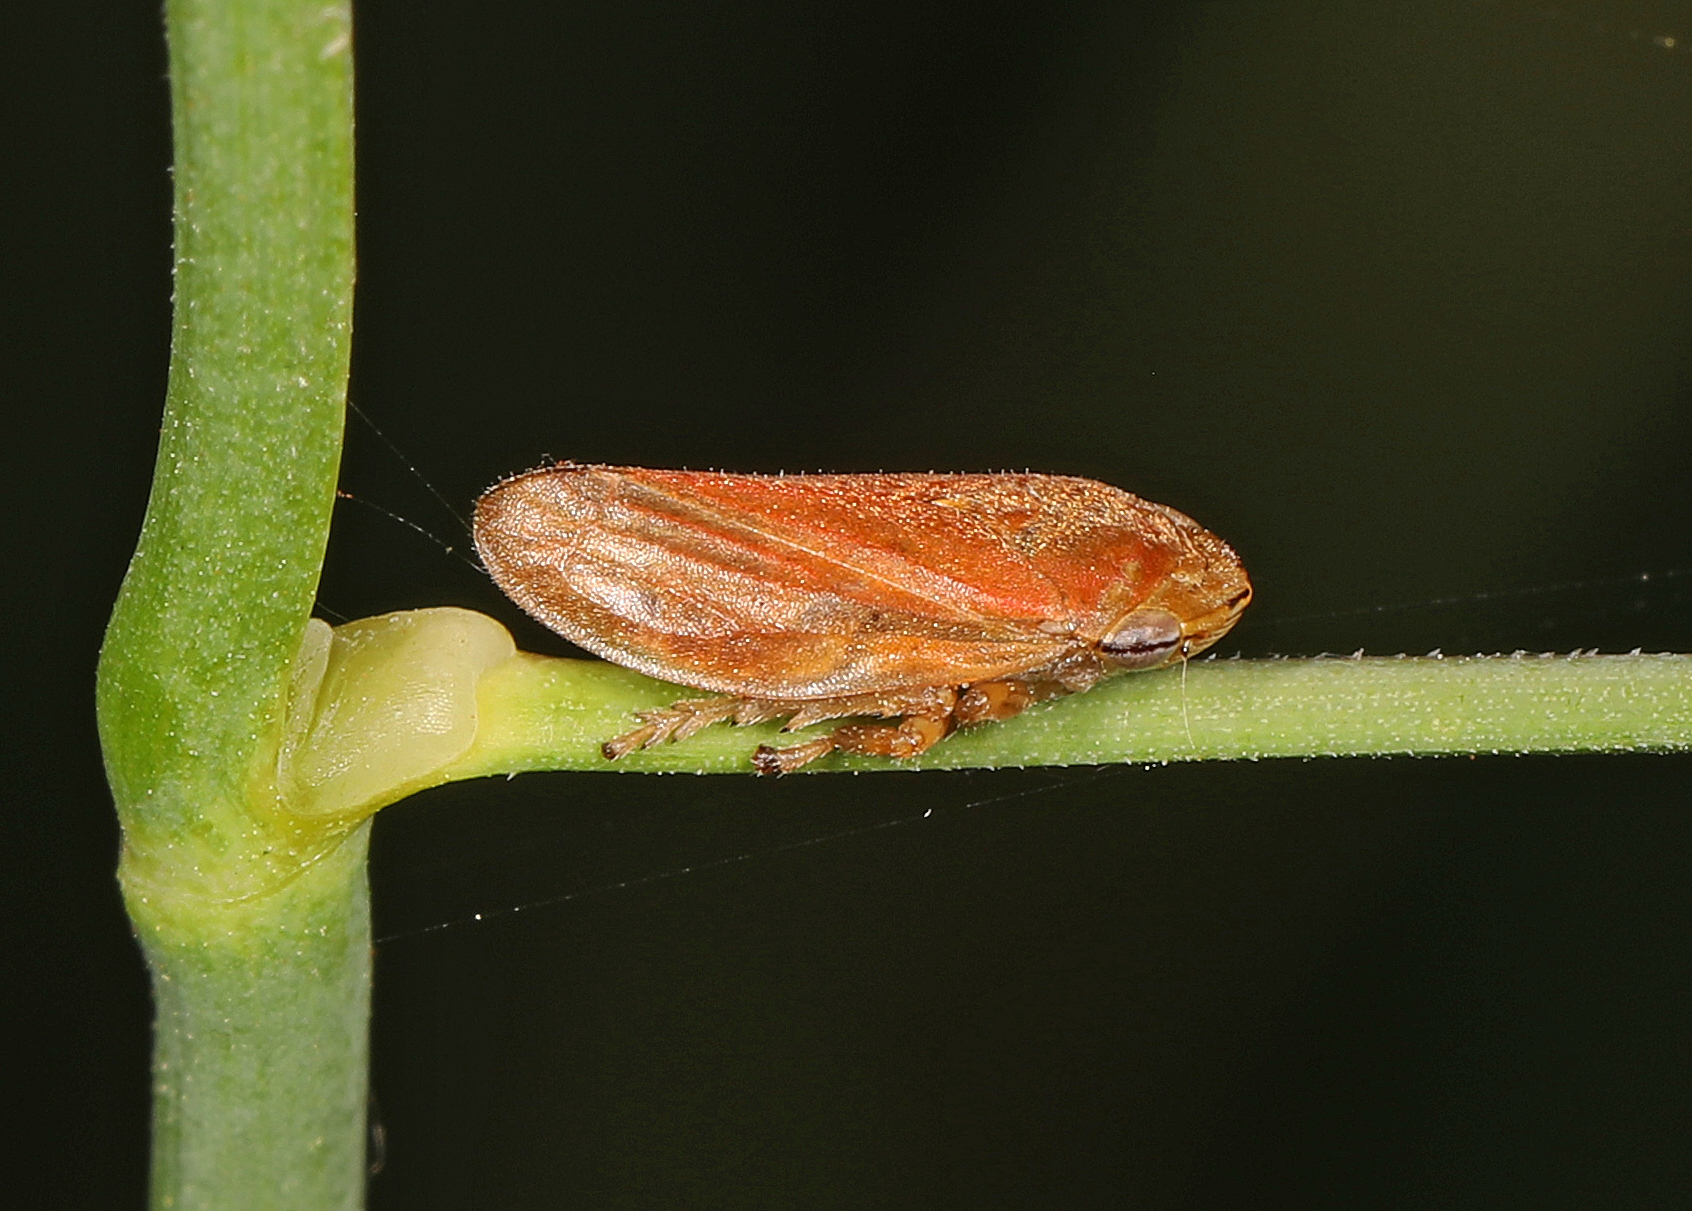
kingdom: Animalia
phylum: Arthropoda
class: Insecta
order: Hemiptera
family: Aphrophoridae
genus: Philaenus
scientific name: Philaenus spumarius
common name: Meadow spittlebug
